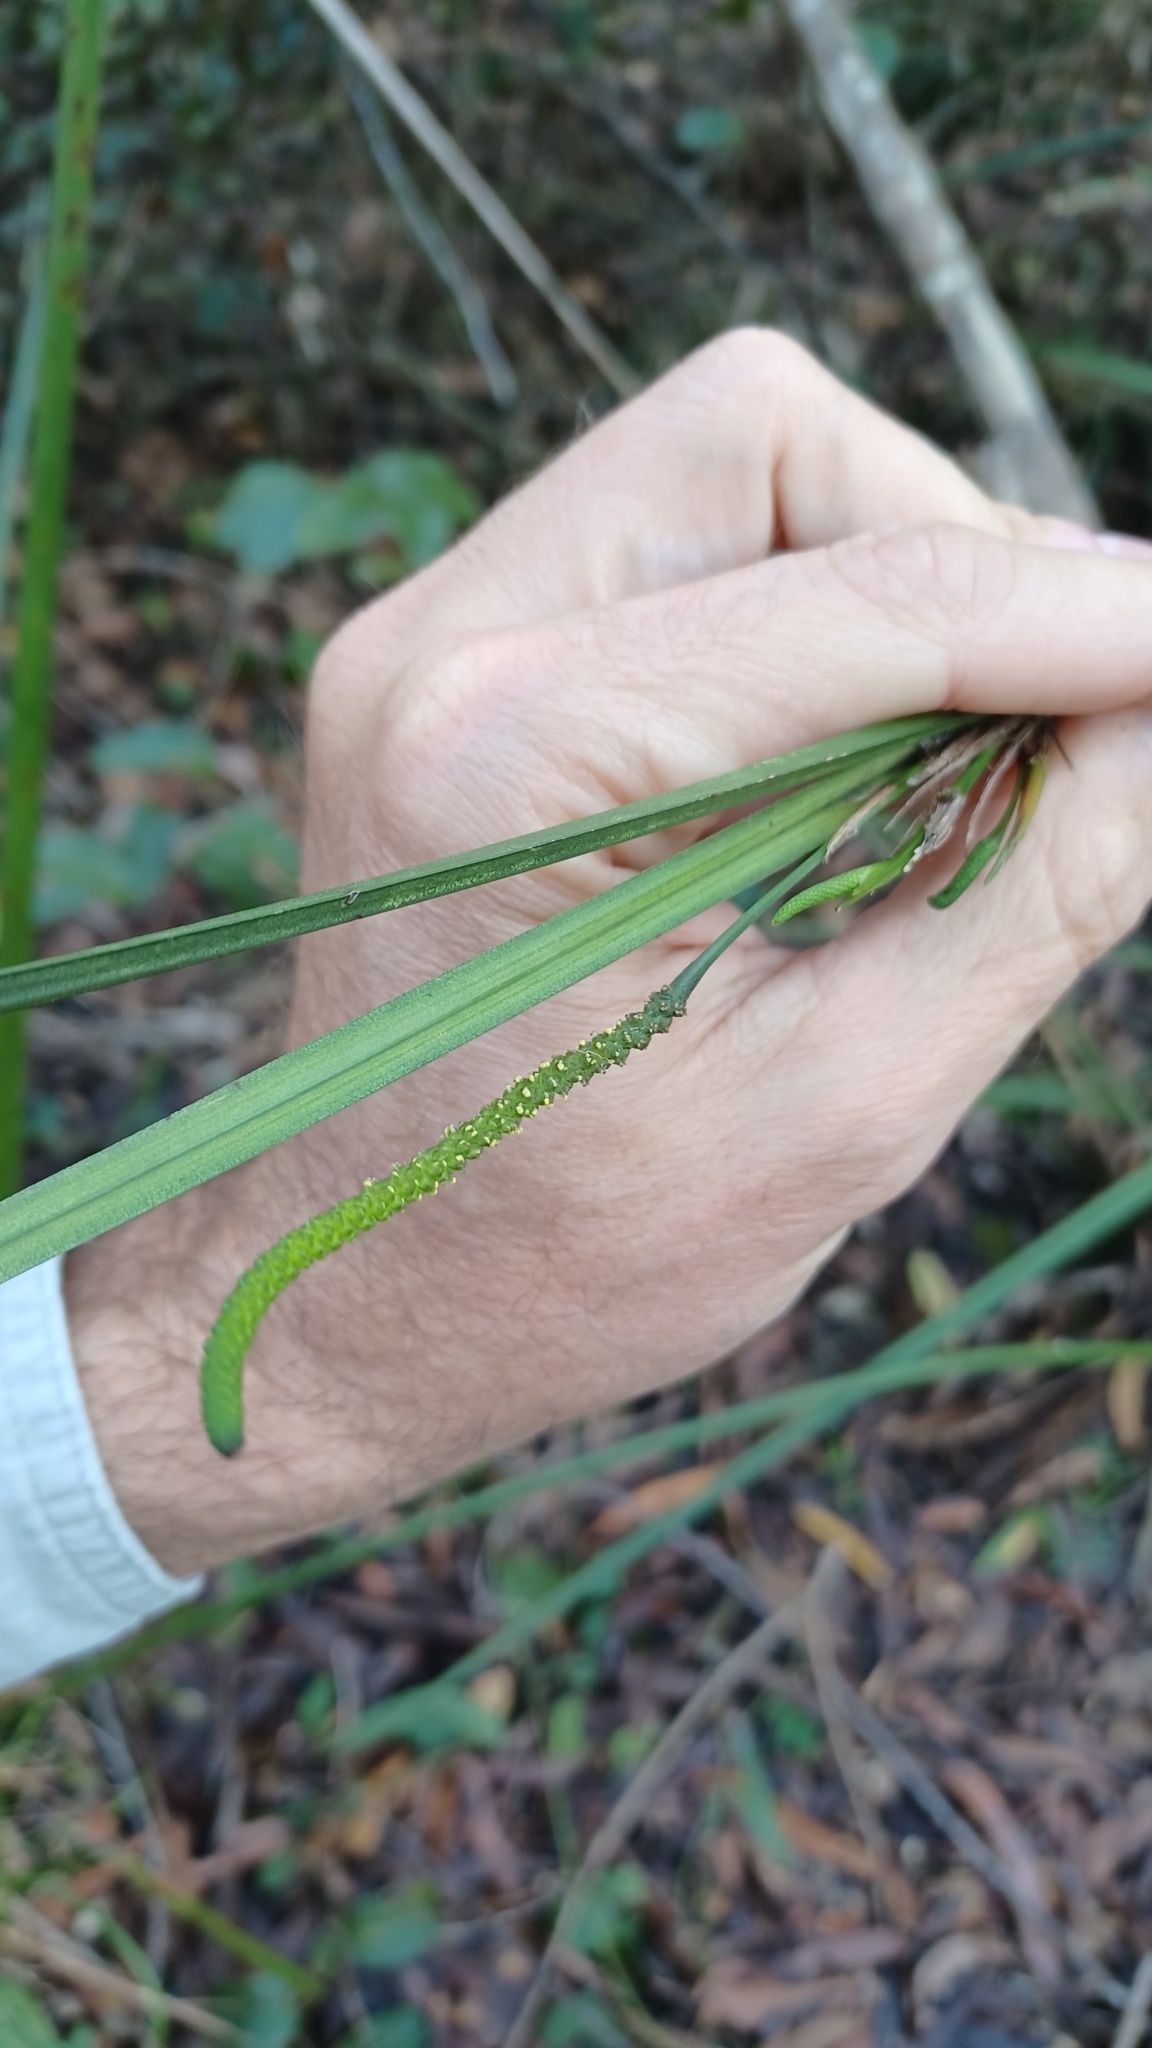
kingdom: Plantae
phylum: Tracheophyta
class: Liliopsida
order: Alismatales
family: Araceae
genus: Gymnostachys
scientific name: Gymnostachys anceps
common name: Settler's-flax
